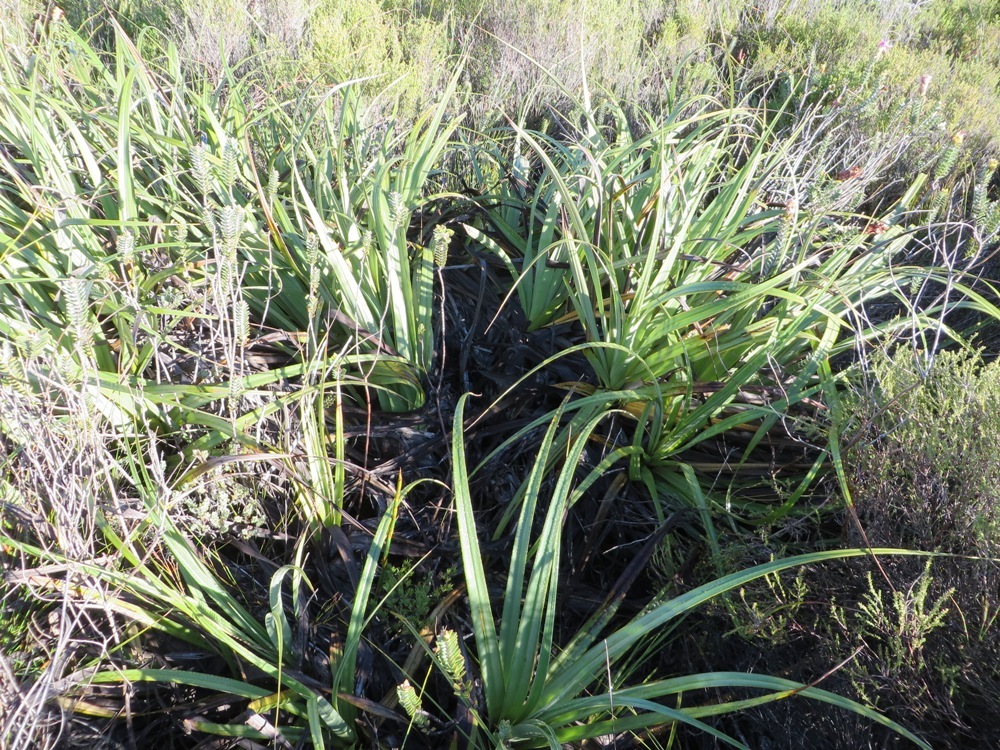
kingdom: Plantae
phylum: Tracheophyta
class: Liliopsida
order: Poales
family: Cyperaceae
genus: Tetraria
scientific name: Tetraria thermalis
